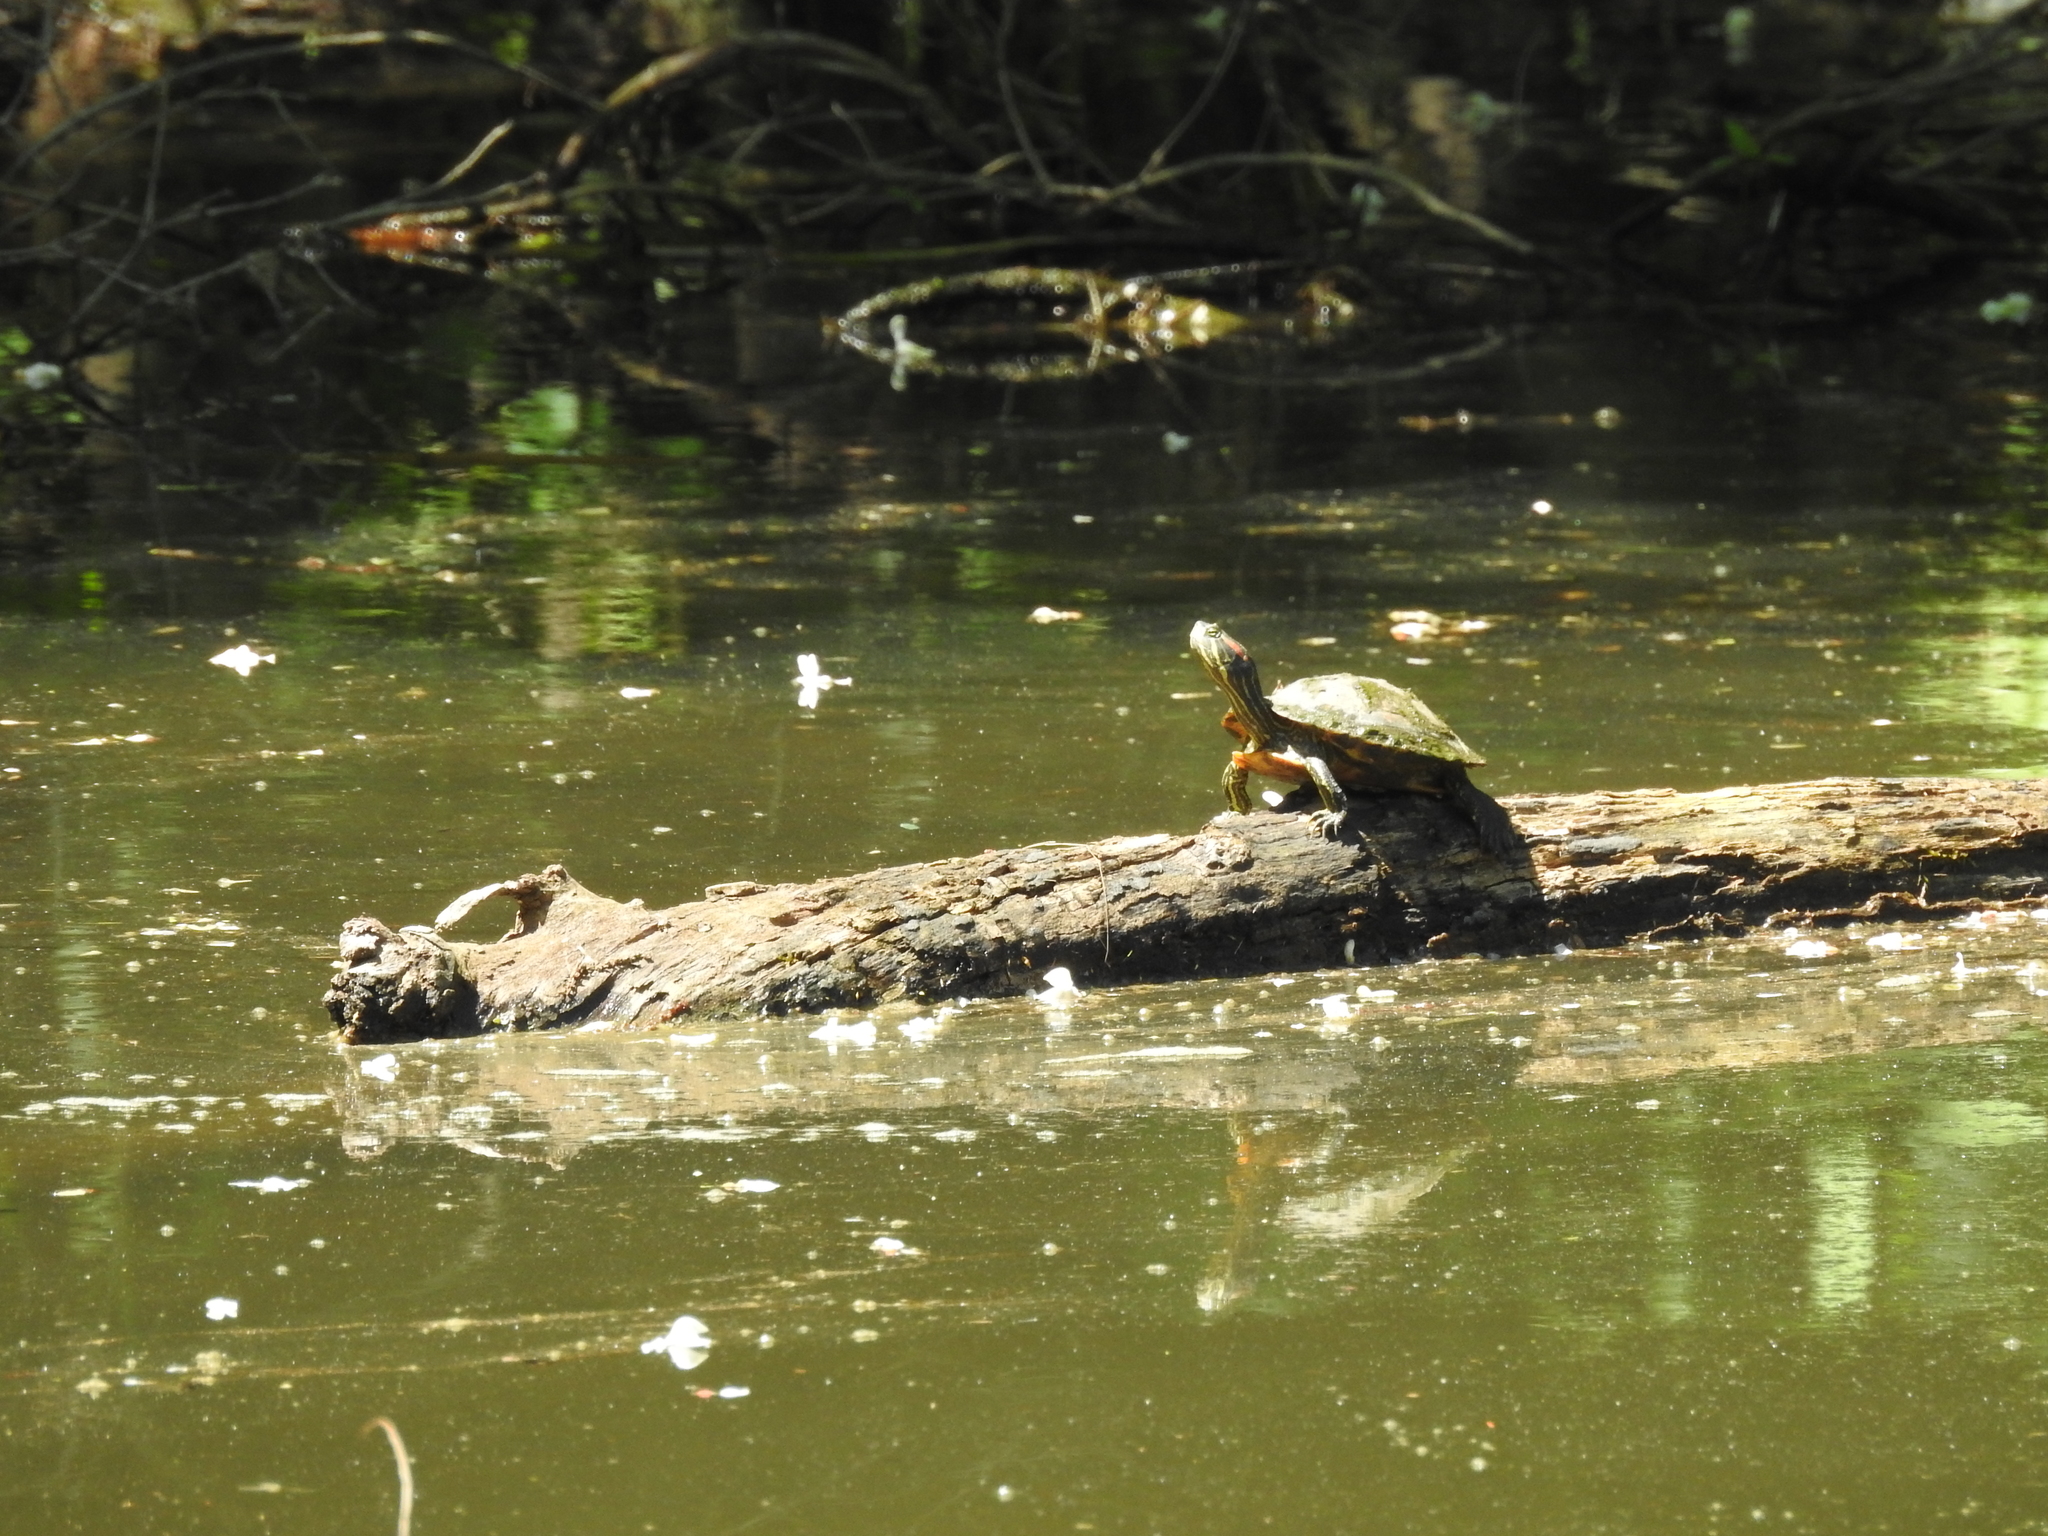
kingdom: Animalia
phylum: Chordata
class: Testudines
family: Emydidae
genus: Trachemys
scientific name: Trachemys scripta
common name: Slider
